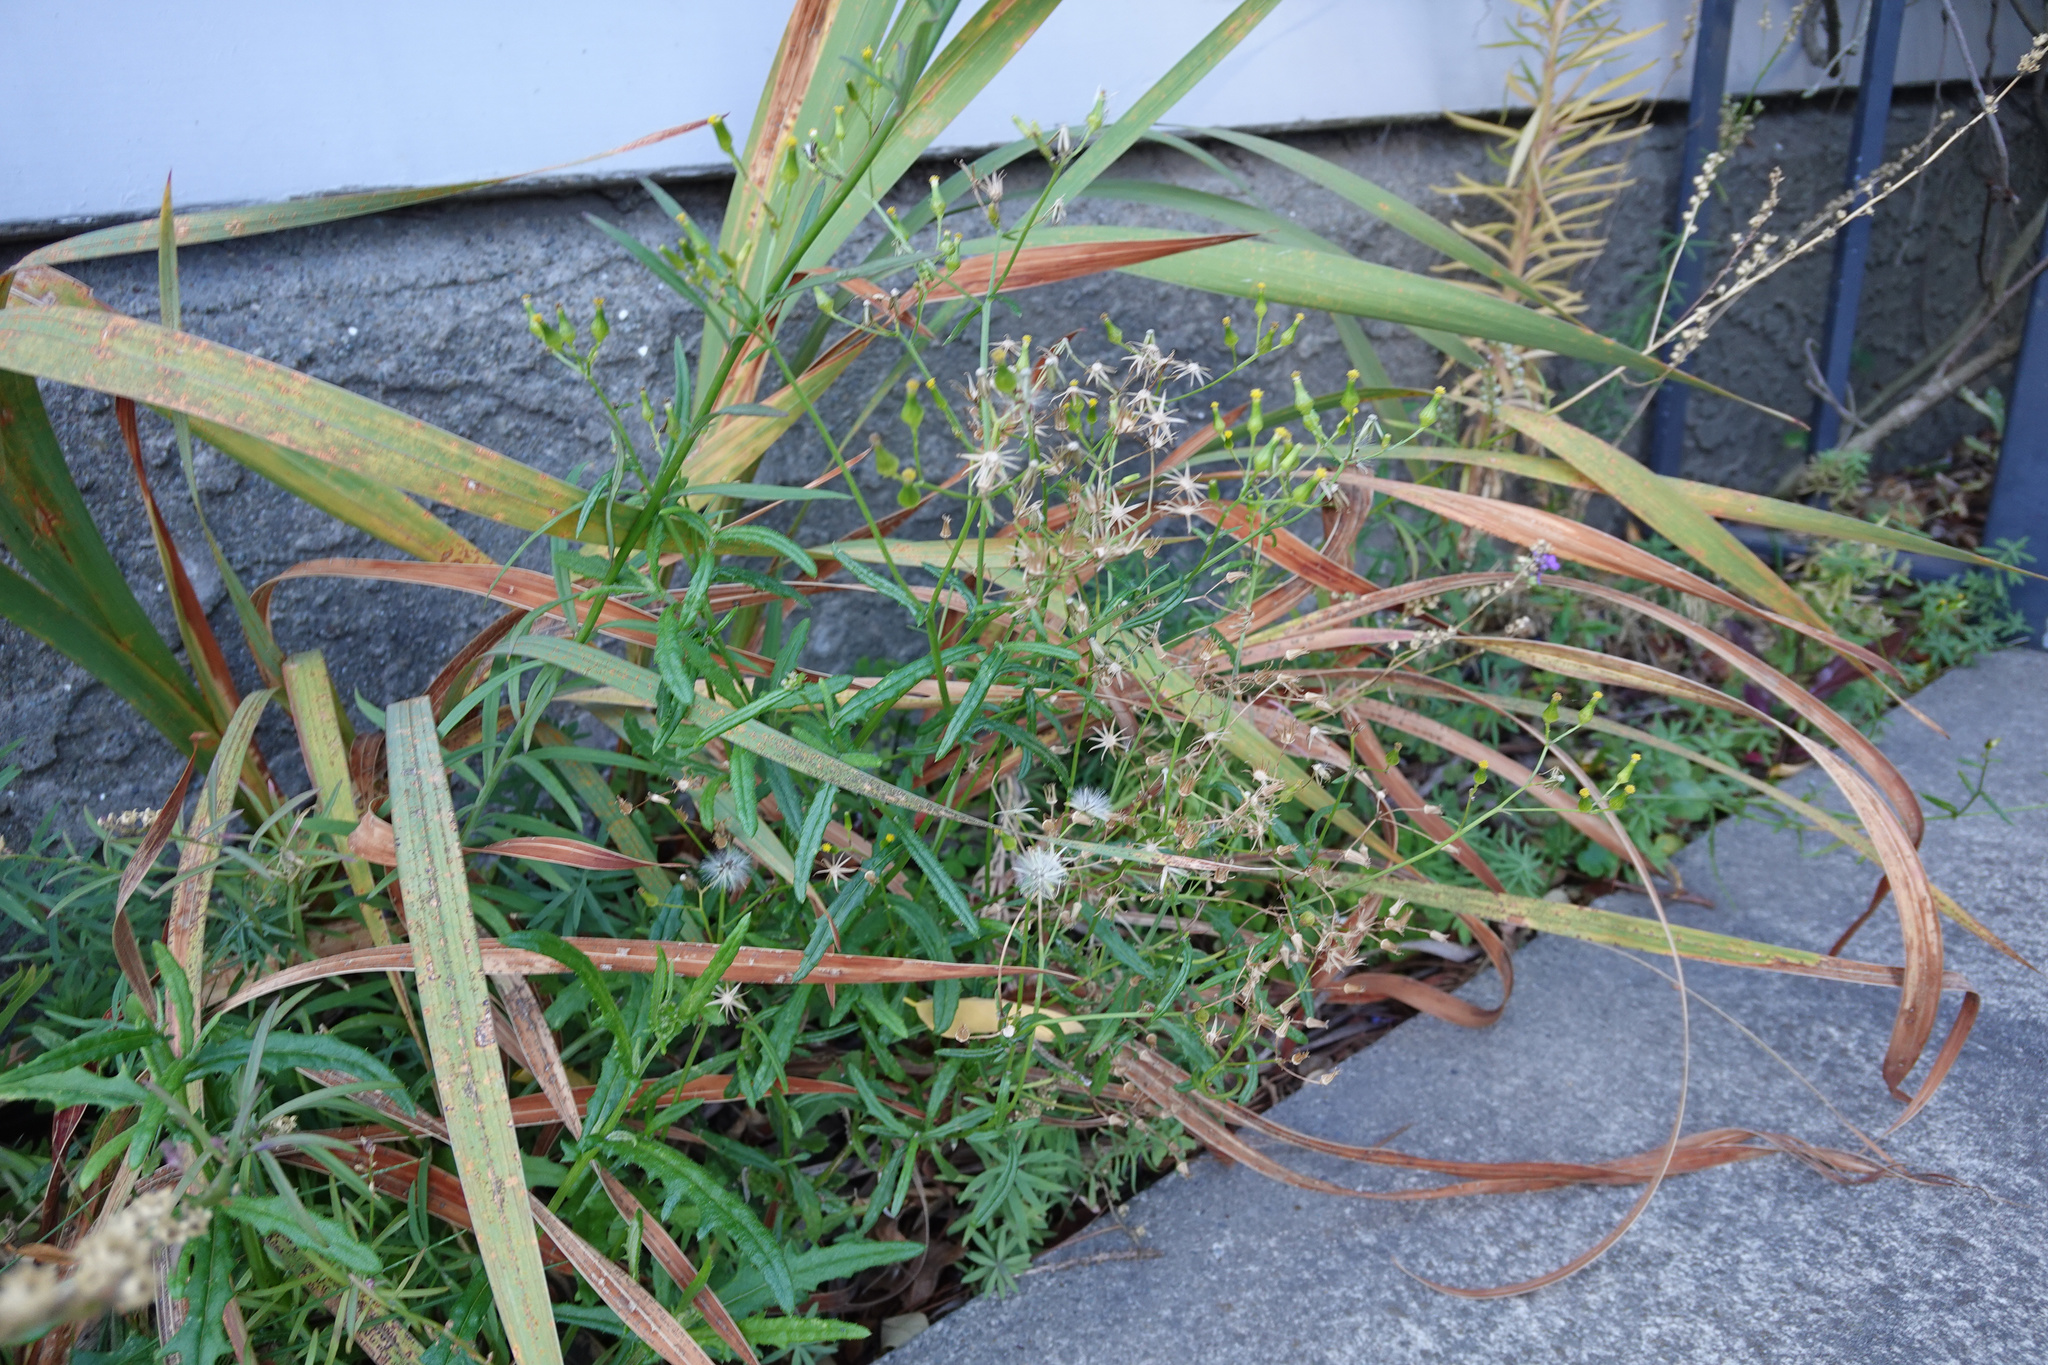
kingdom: Plantae
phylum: Tracheophyta
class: Magnoliopsida
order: Asterales
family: Asteraceae
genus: Senecio
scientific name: Senecio hispidulus
